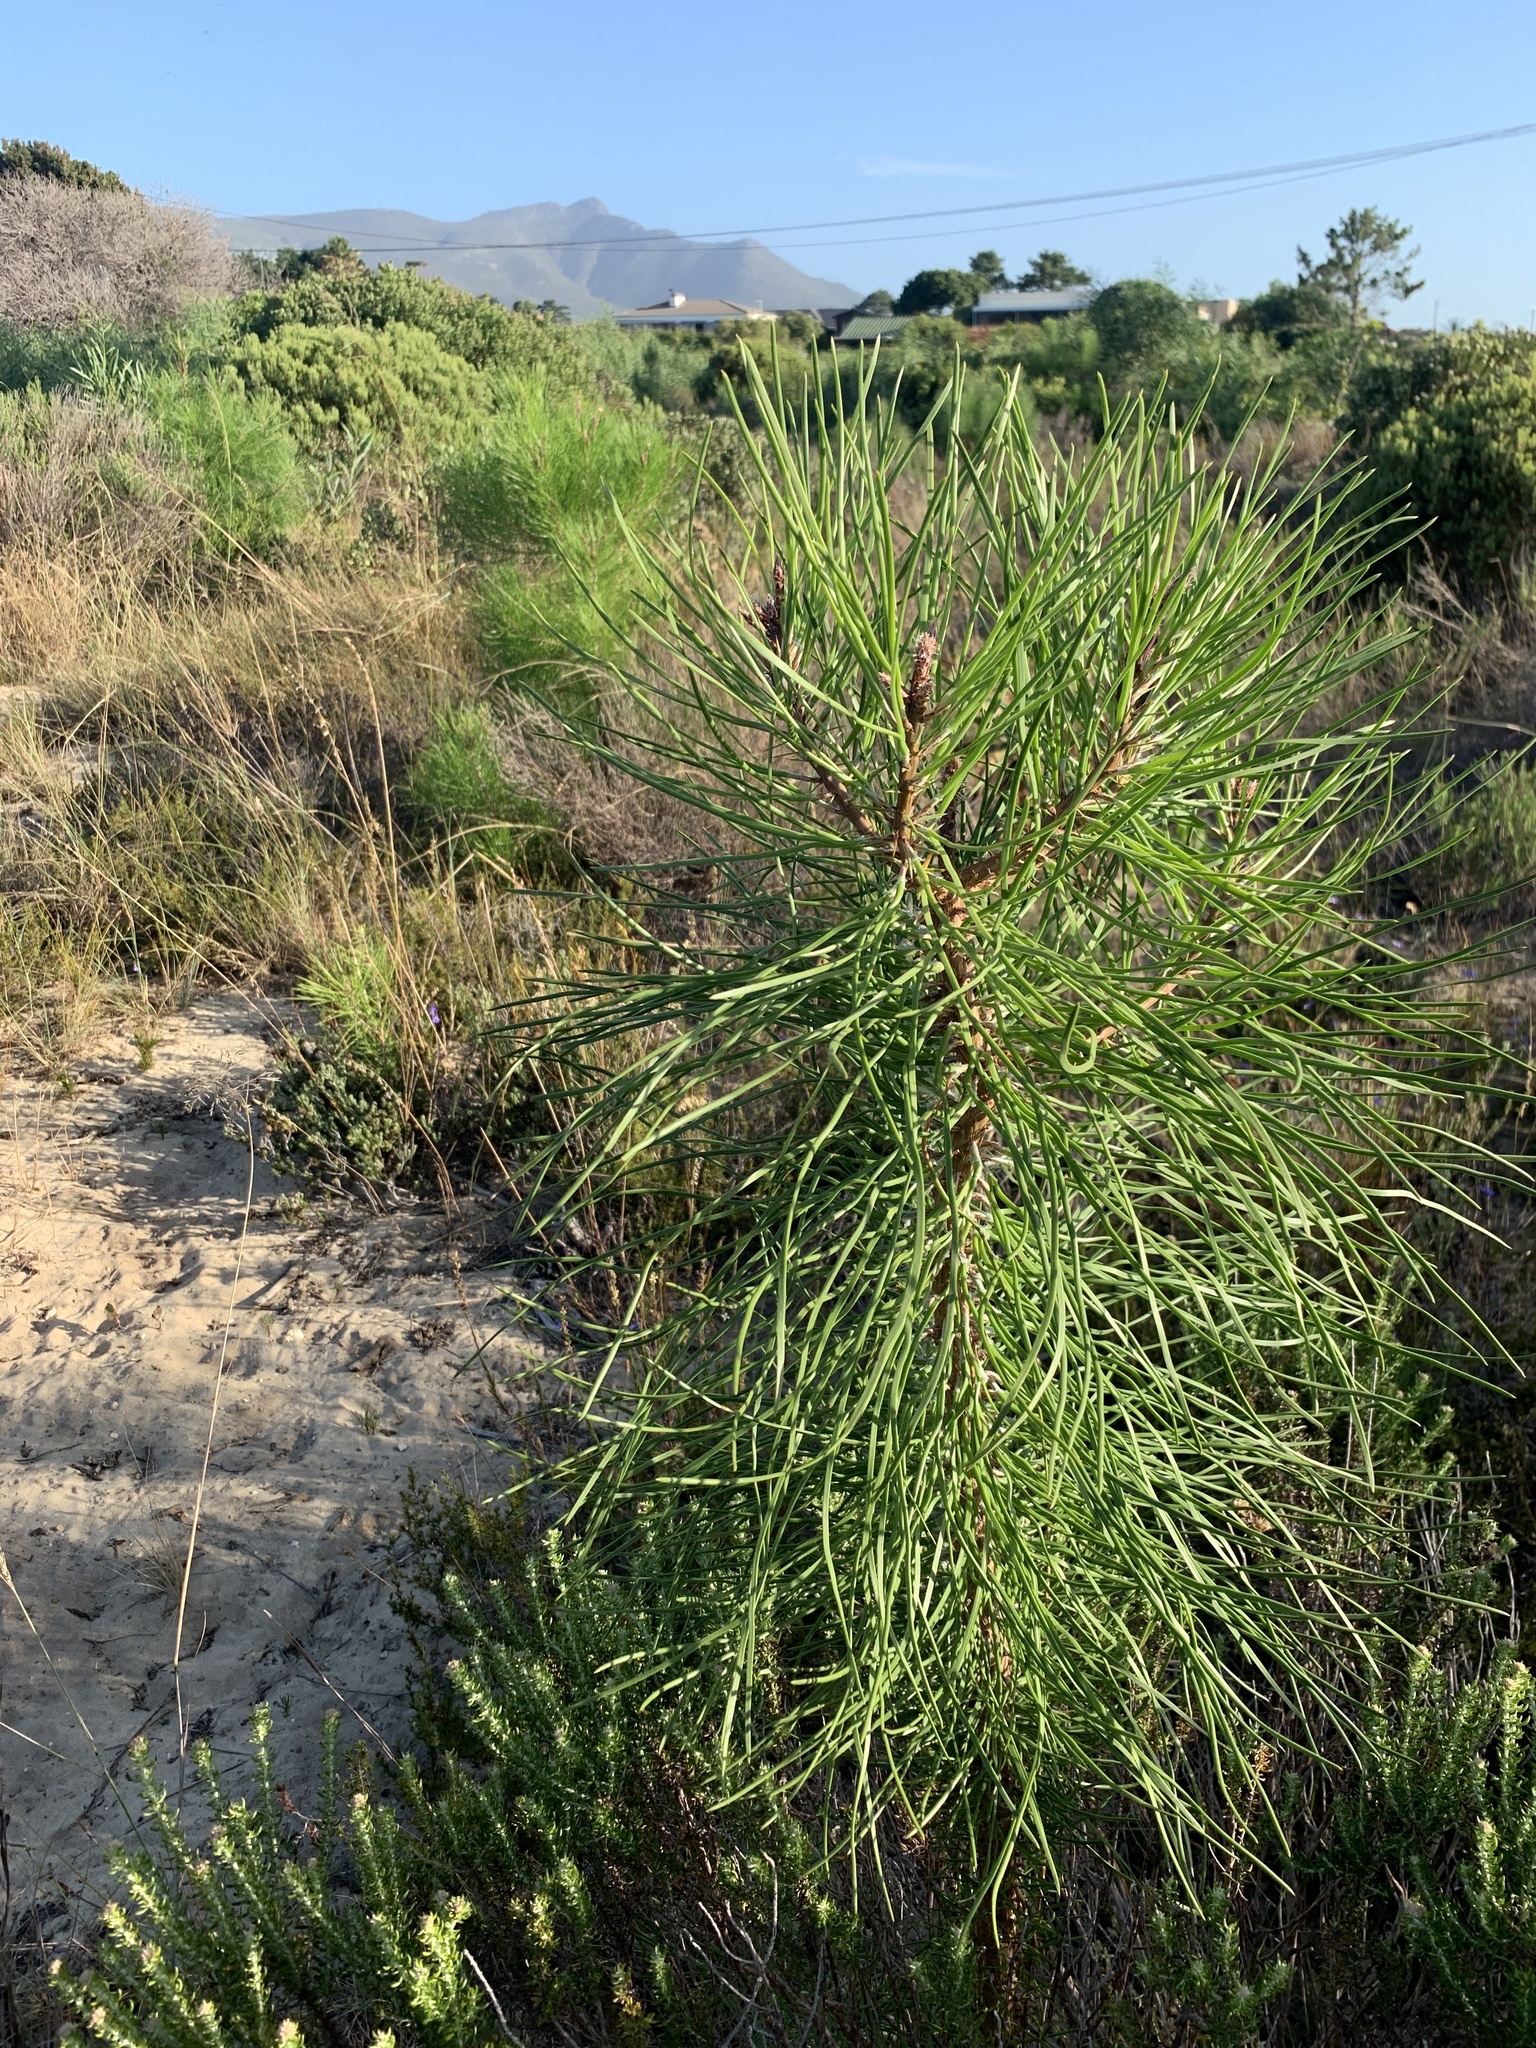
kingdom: Plantae
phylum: Tracheophyta
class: Pinopsida
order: Pinales
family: Pinaceae
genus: Pinus
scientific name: Pinus pinaster
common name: Maritime pine
